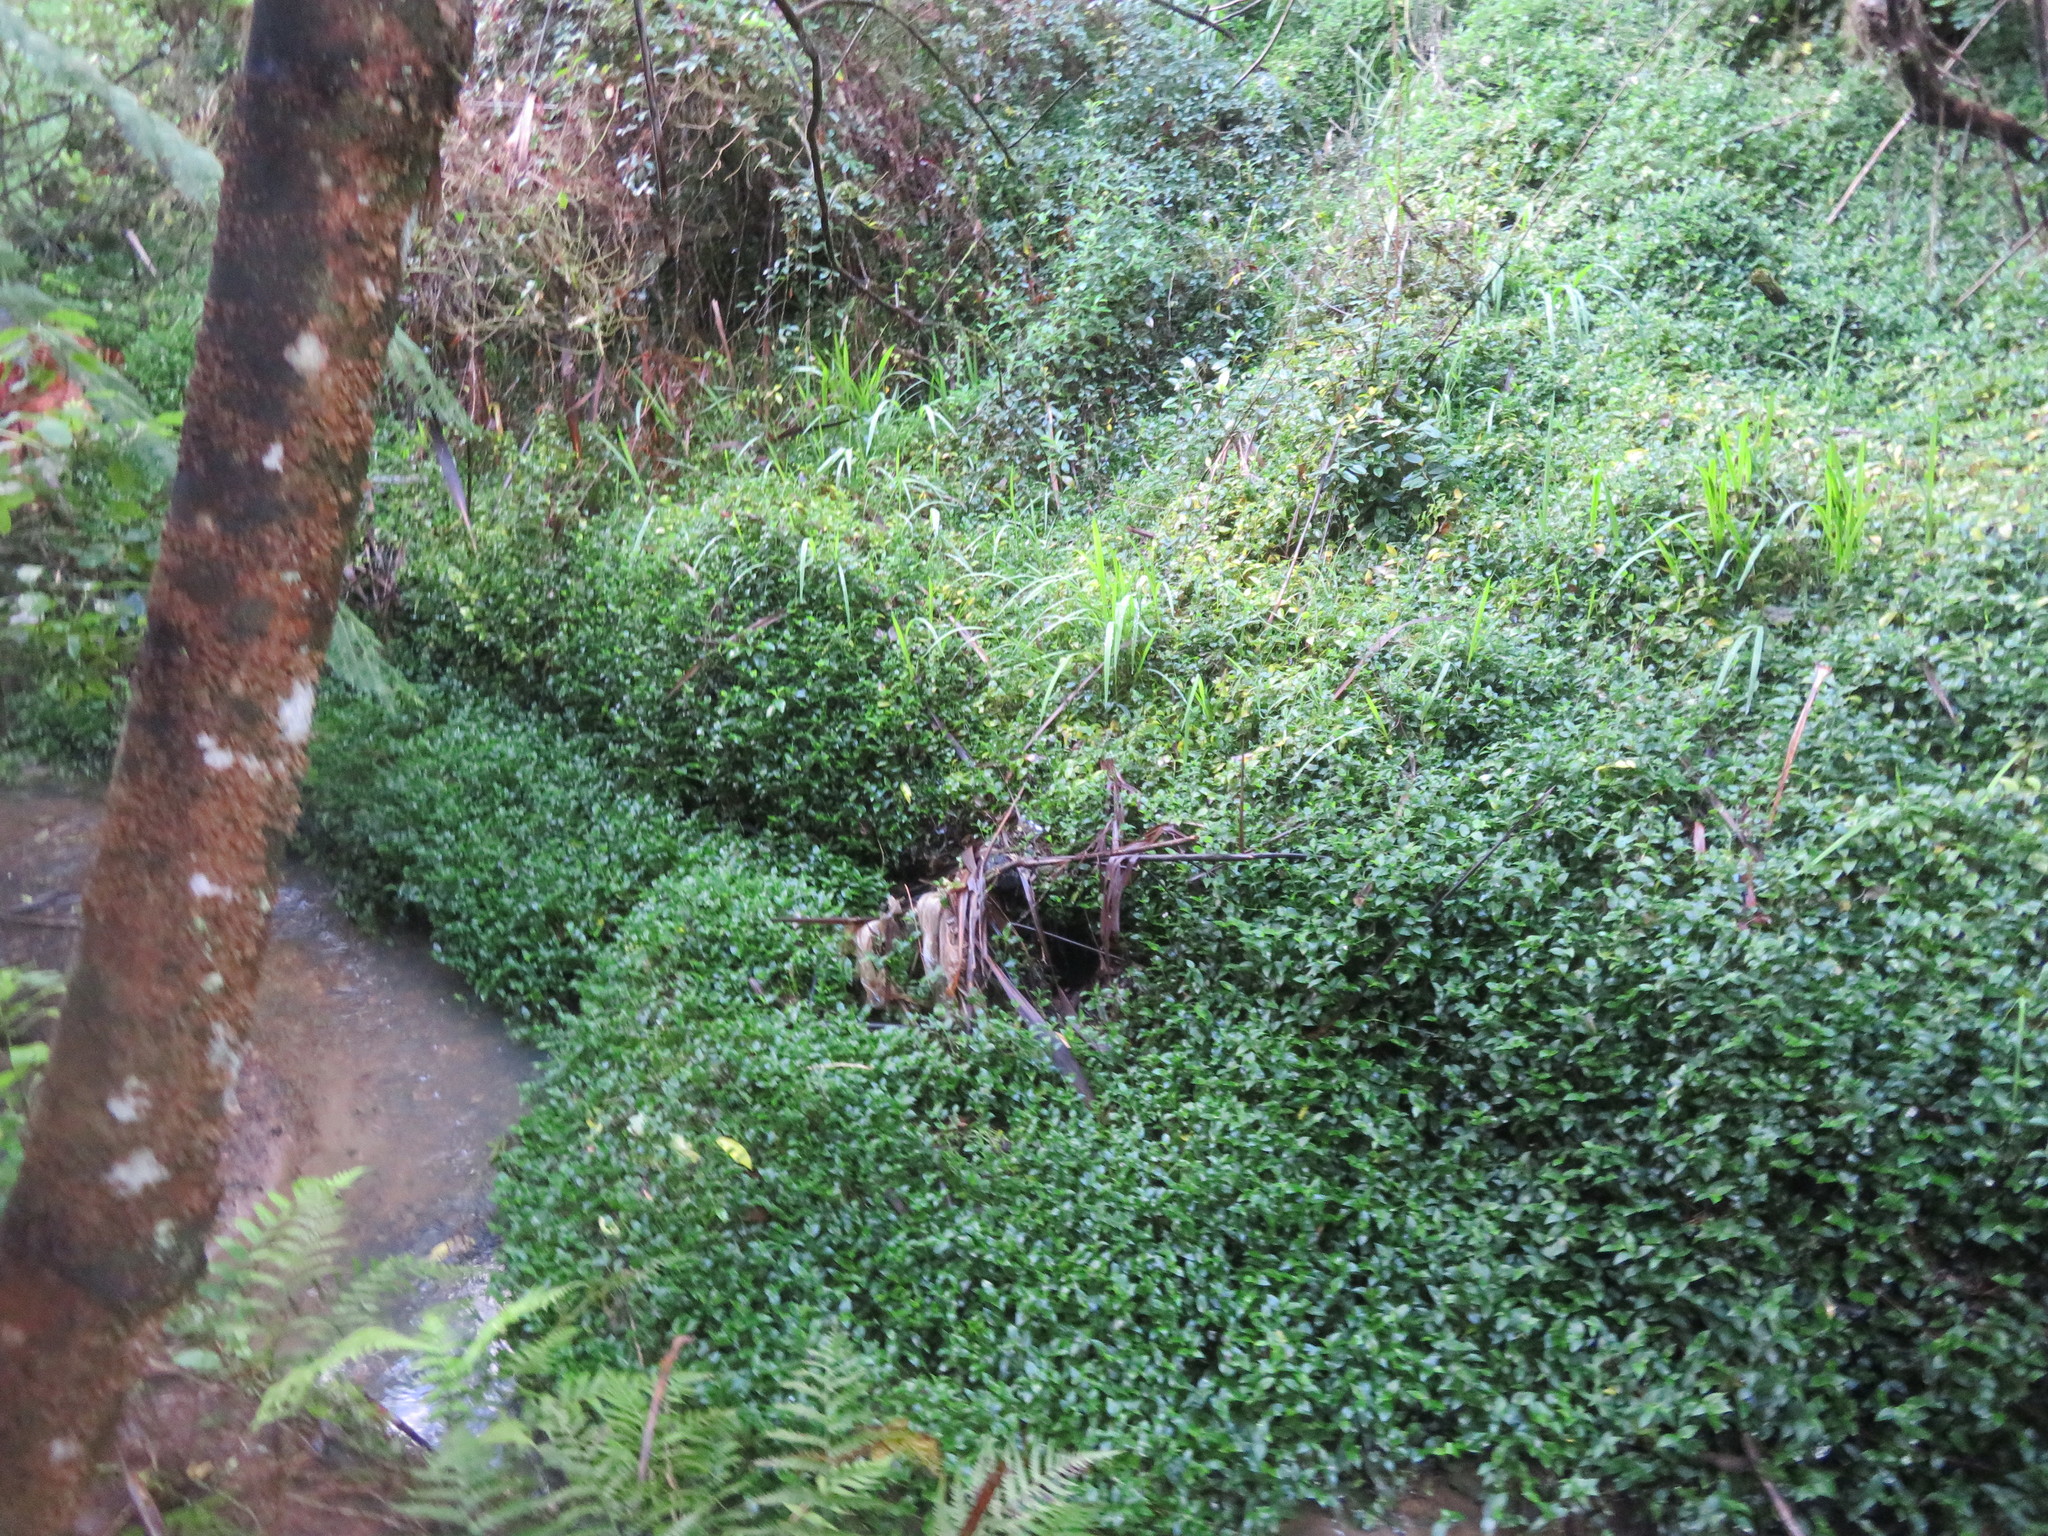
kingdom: Plantae
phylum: Tracheophyta
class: Liliopsida
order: Commelinales
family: Commelinaceae
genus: Tradescantia
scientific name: Tradescantia fluminensis
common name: Wandering-jew
